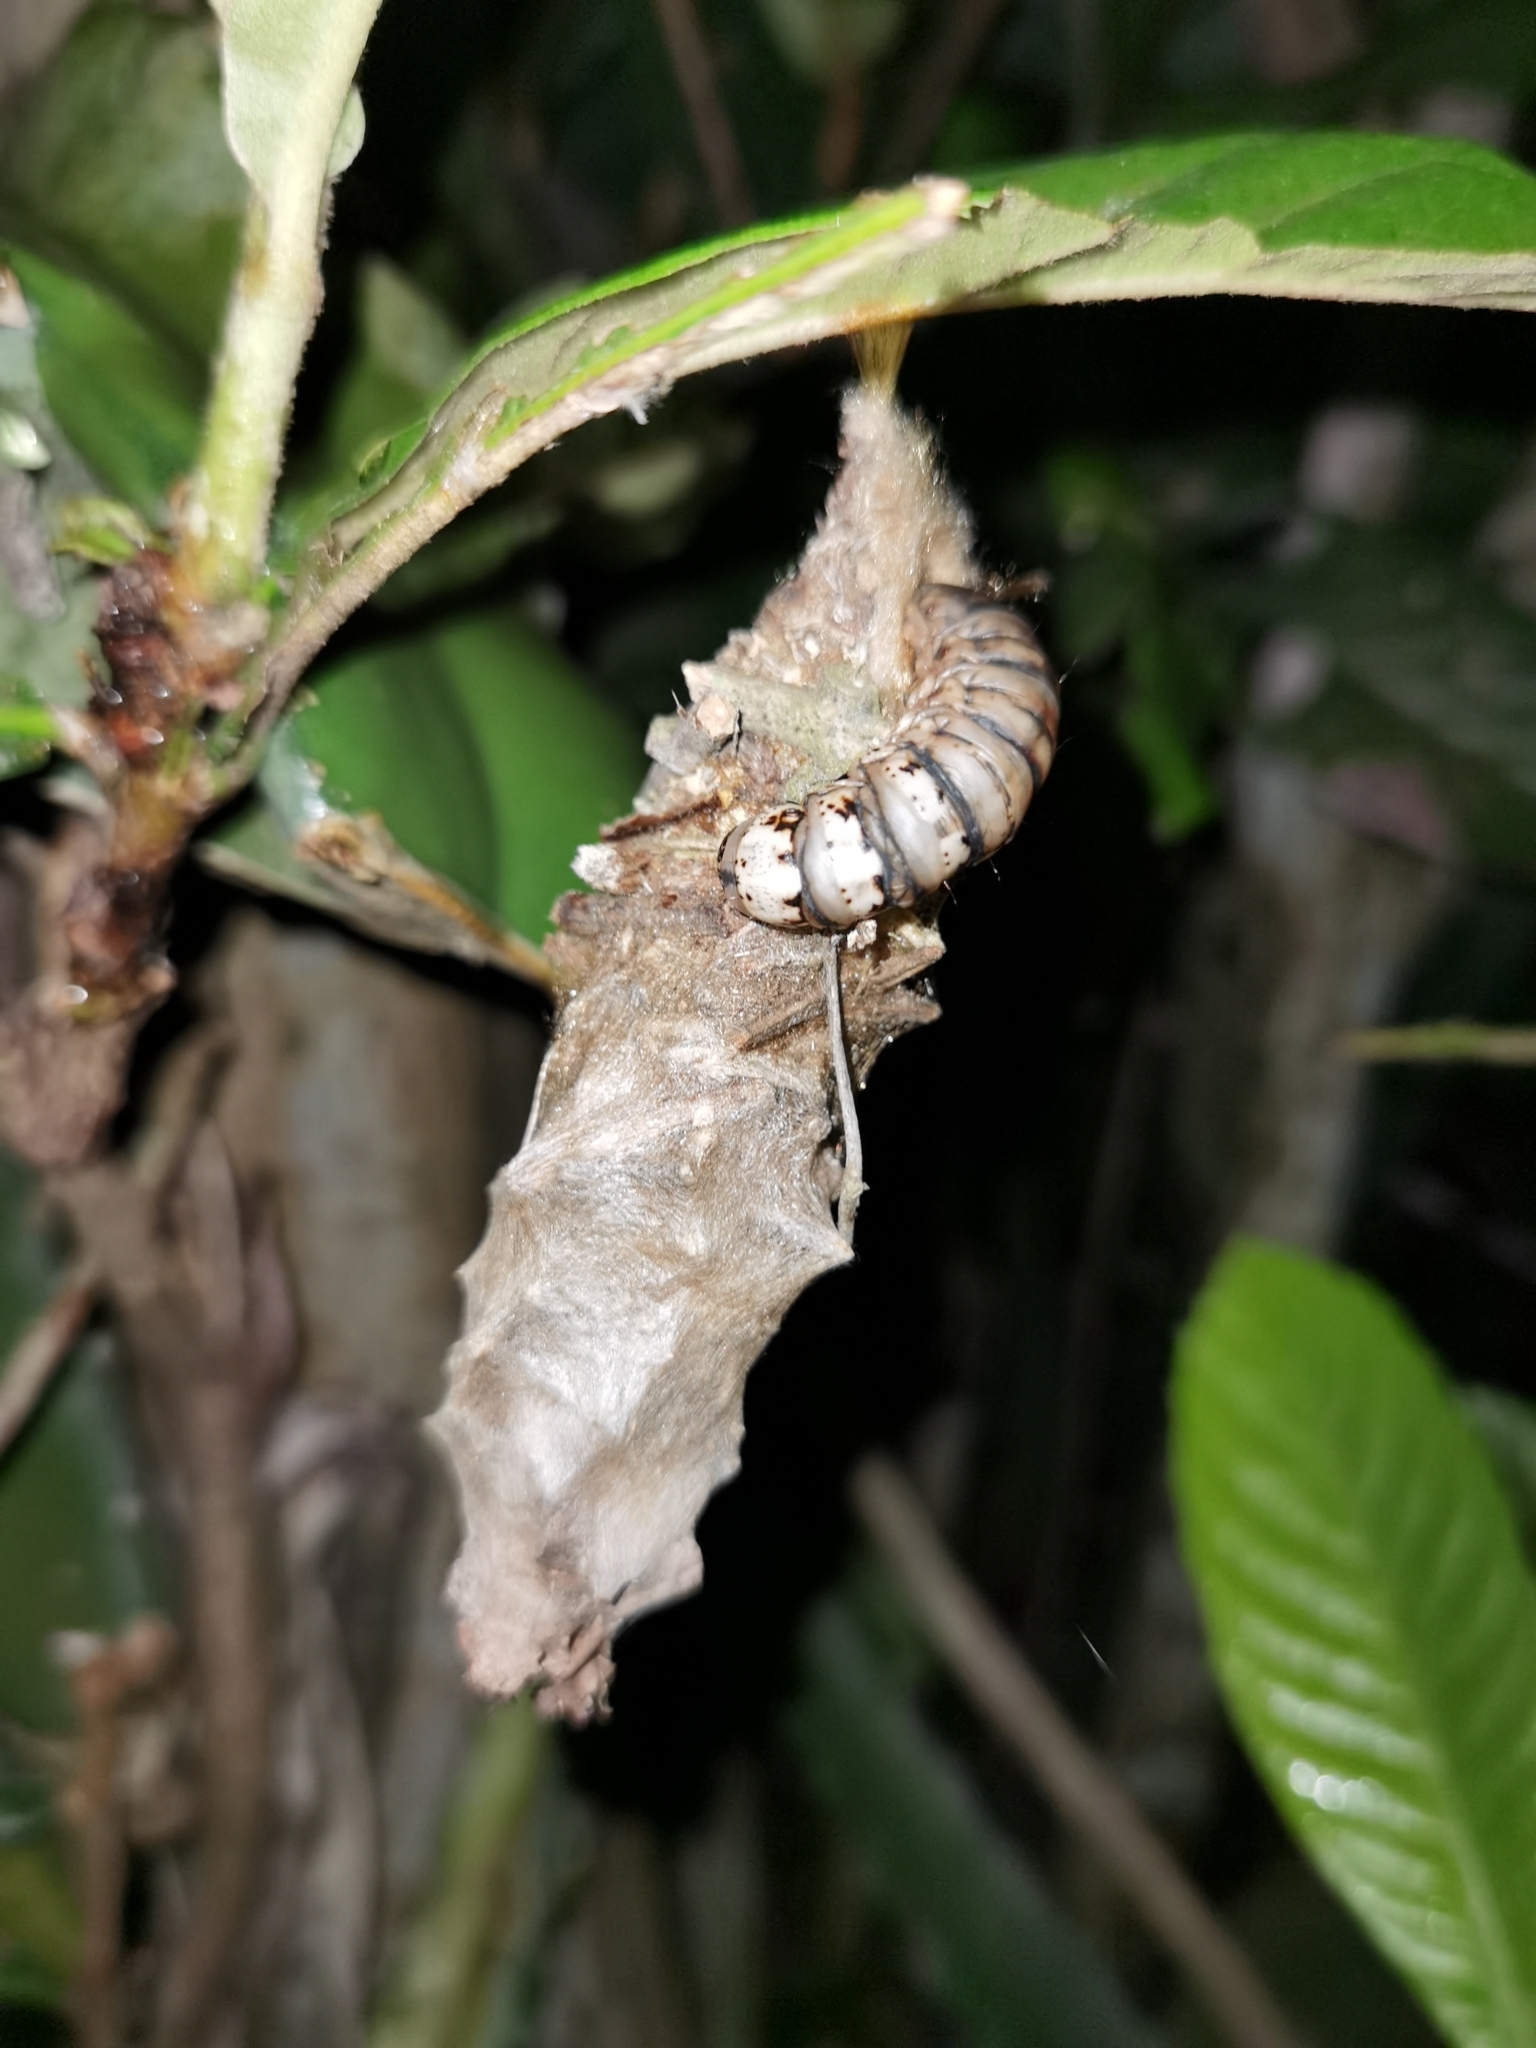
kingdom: Animalia
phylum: Arthropoda
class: Insecta
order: Lepidoptera
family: Psychidae
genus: Oiketicus
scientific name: Oiketicus kirbyi
